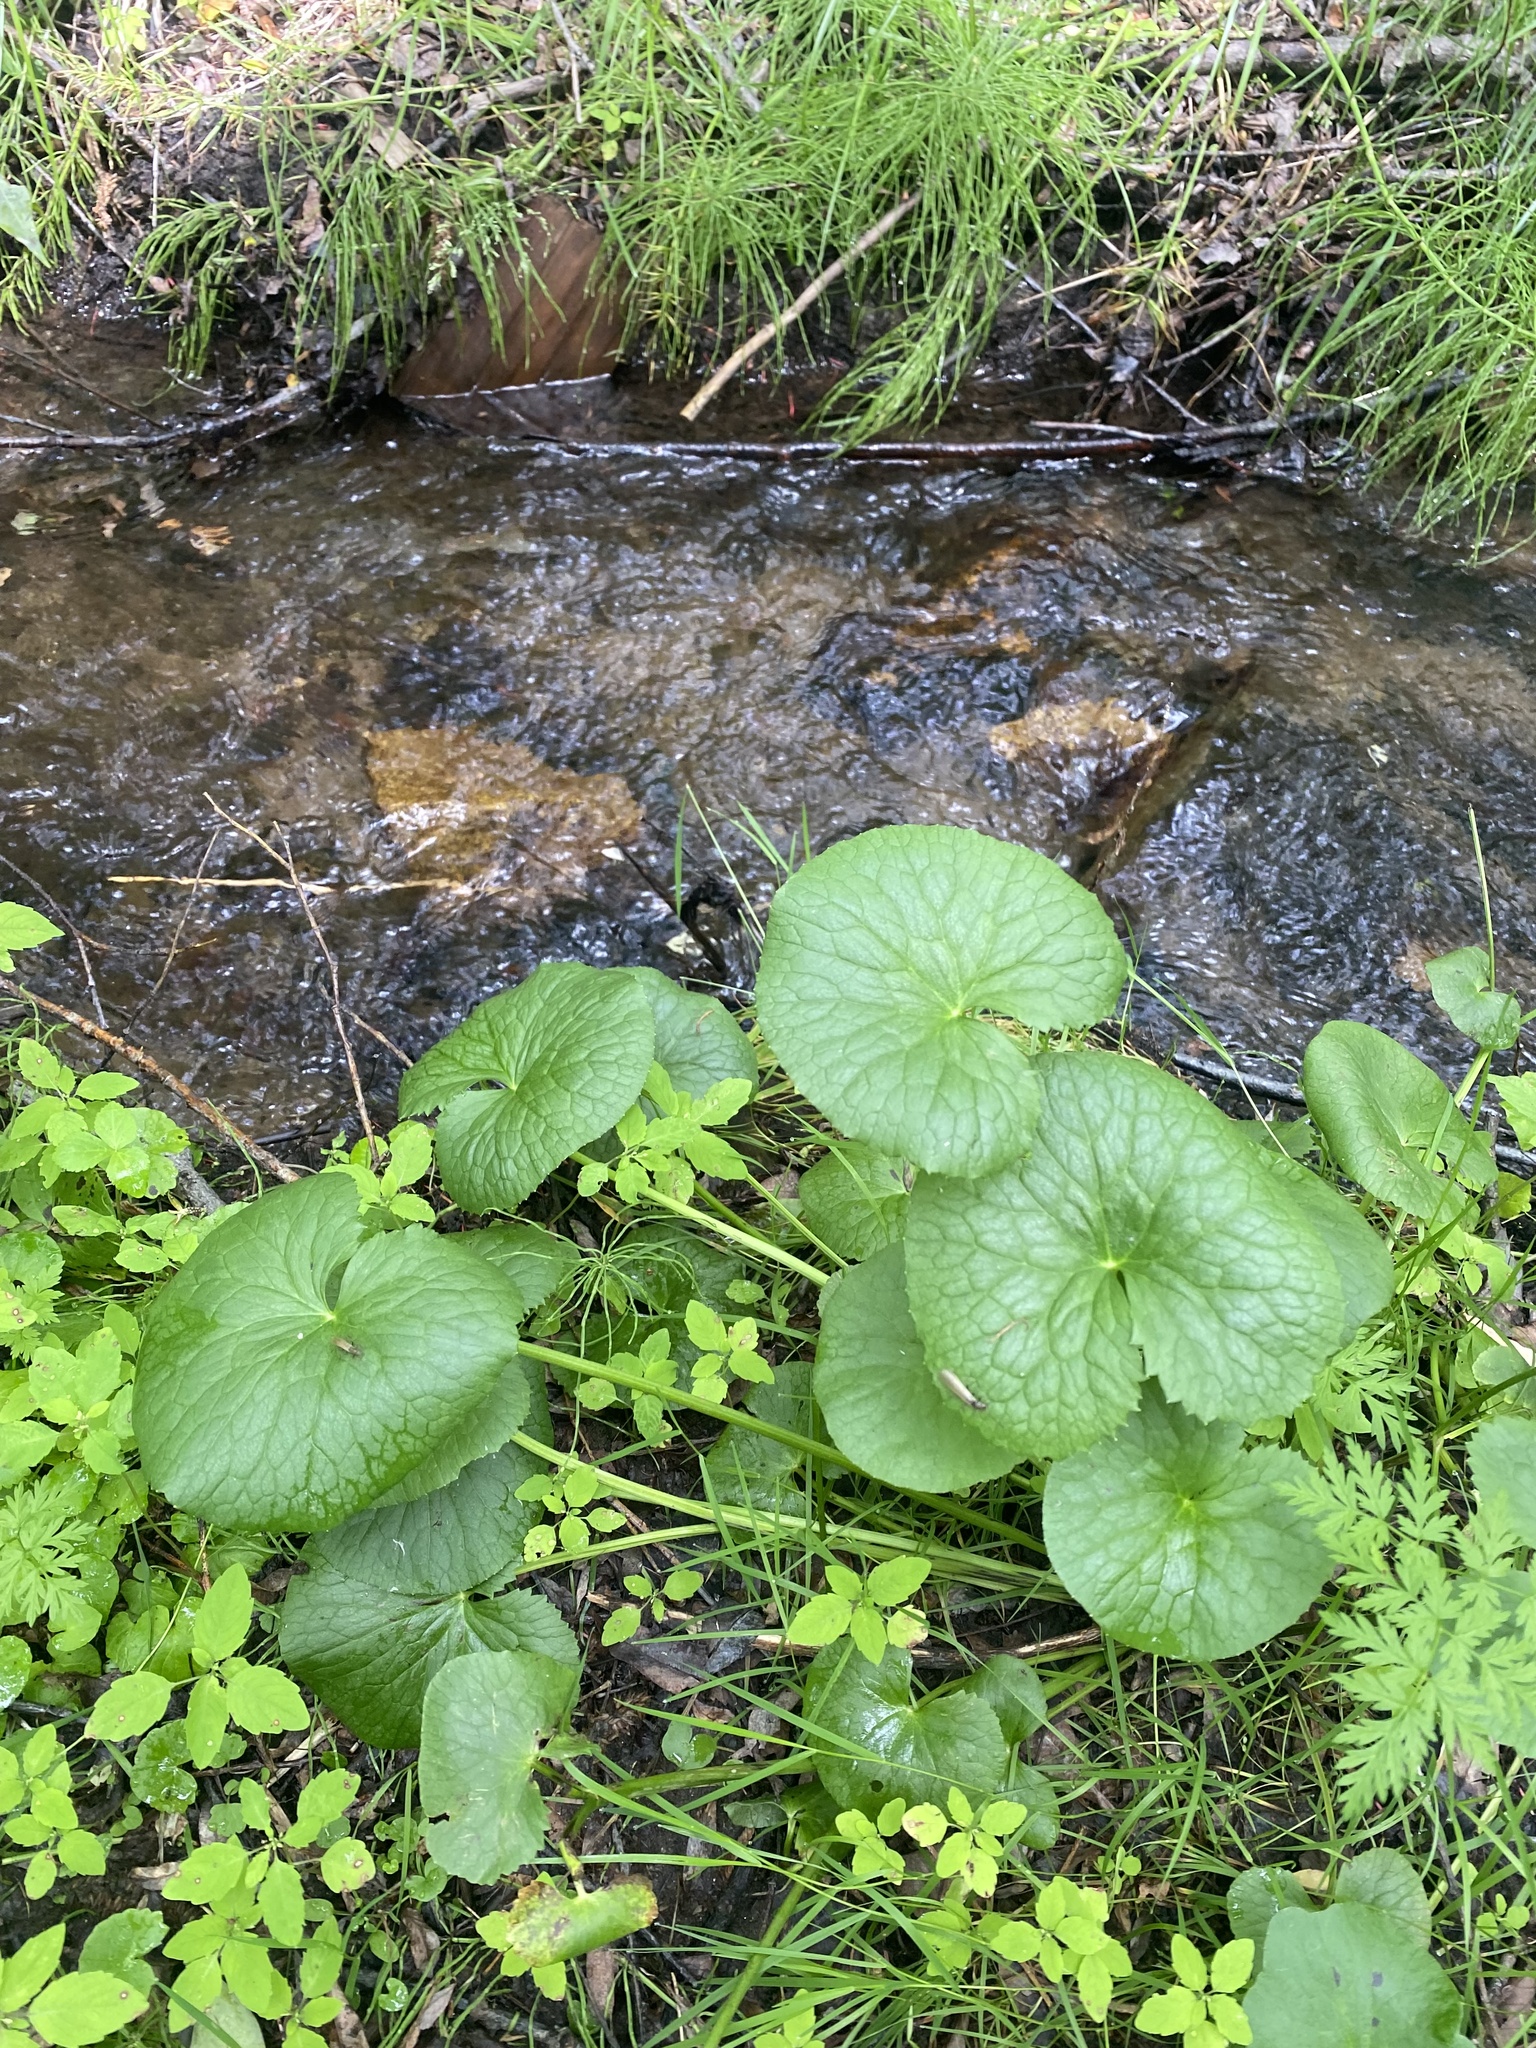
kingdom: Plantae
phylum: Tracheophyta
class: Magnoliopsida
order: Ranunculales
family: Ranunculaceae
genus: Caltha
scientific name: Caltha palustris
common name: Marsh marigold
